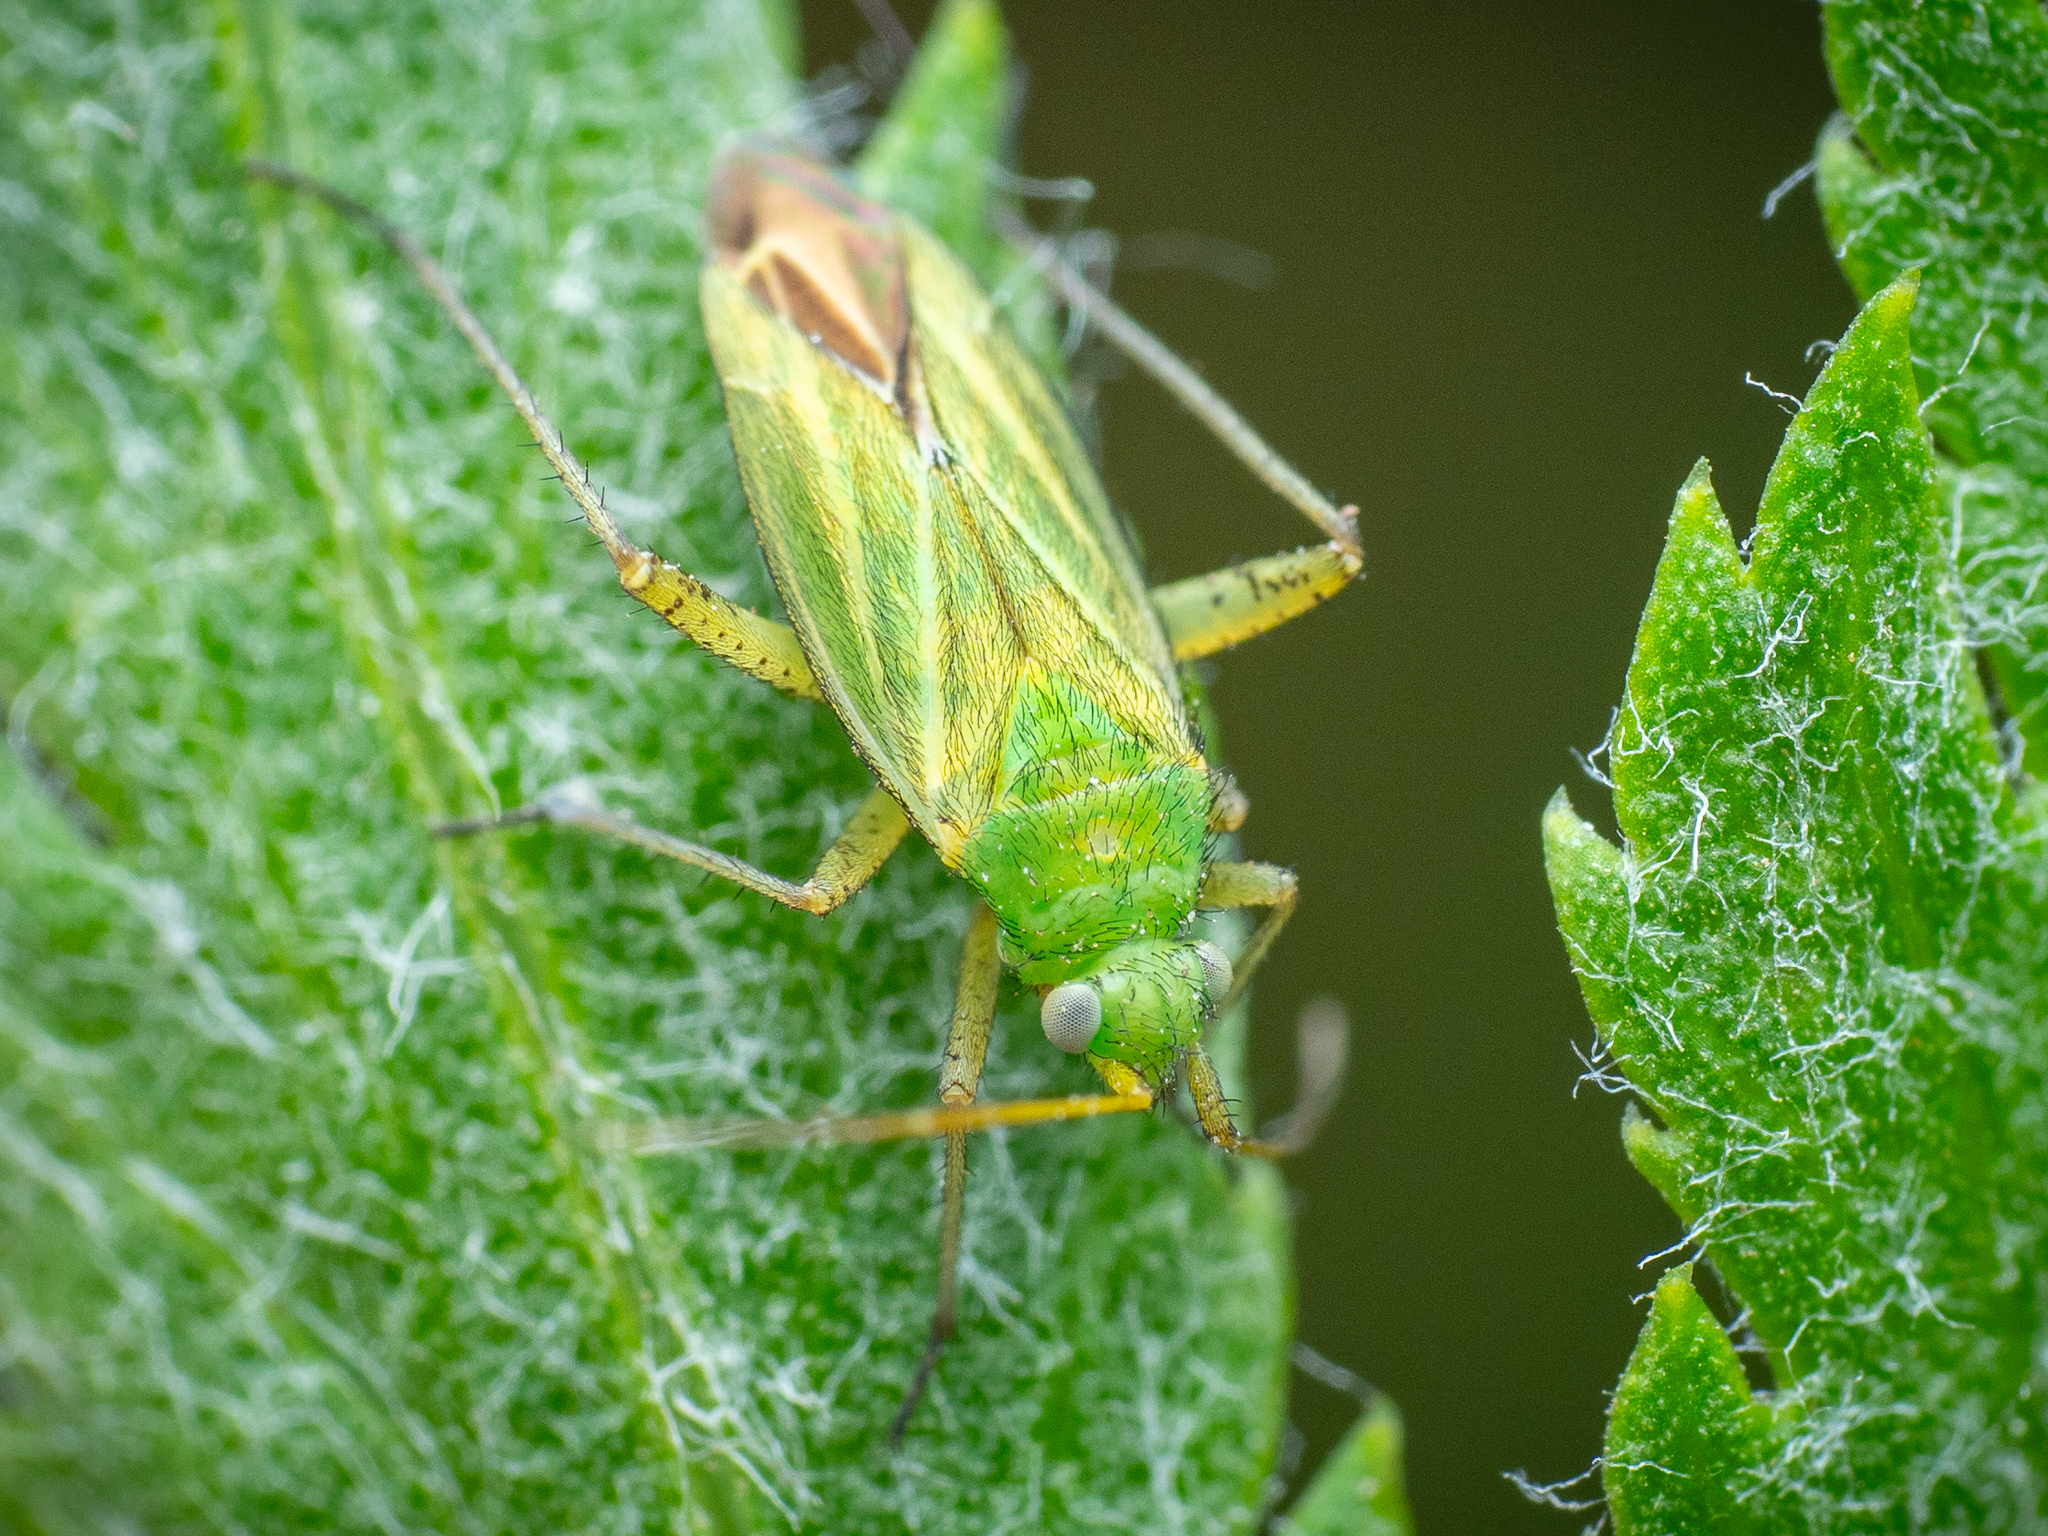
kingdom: Animalia
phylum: Arthropoda
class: Insecta
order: Hemiptera
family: Miridae
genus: Oncotylus
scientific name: Oncotylus punctipes
